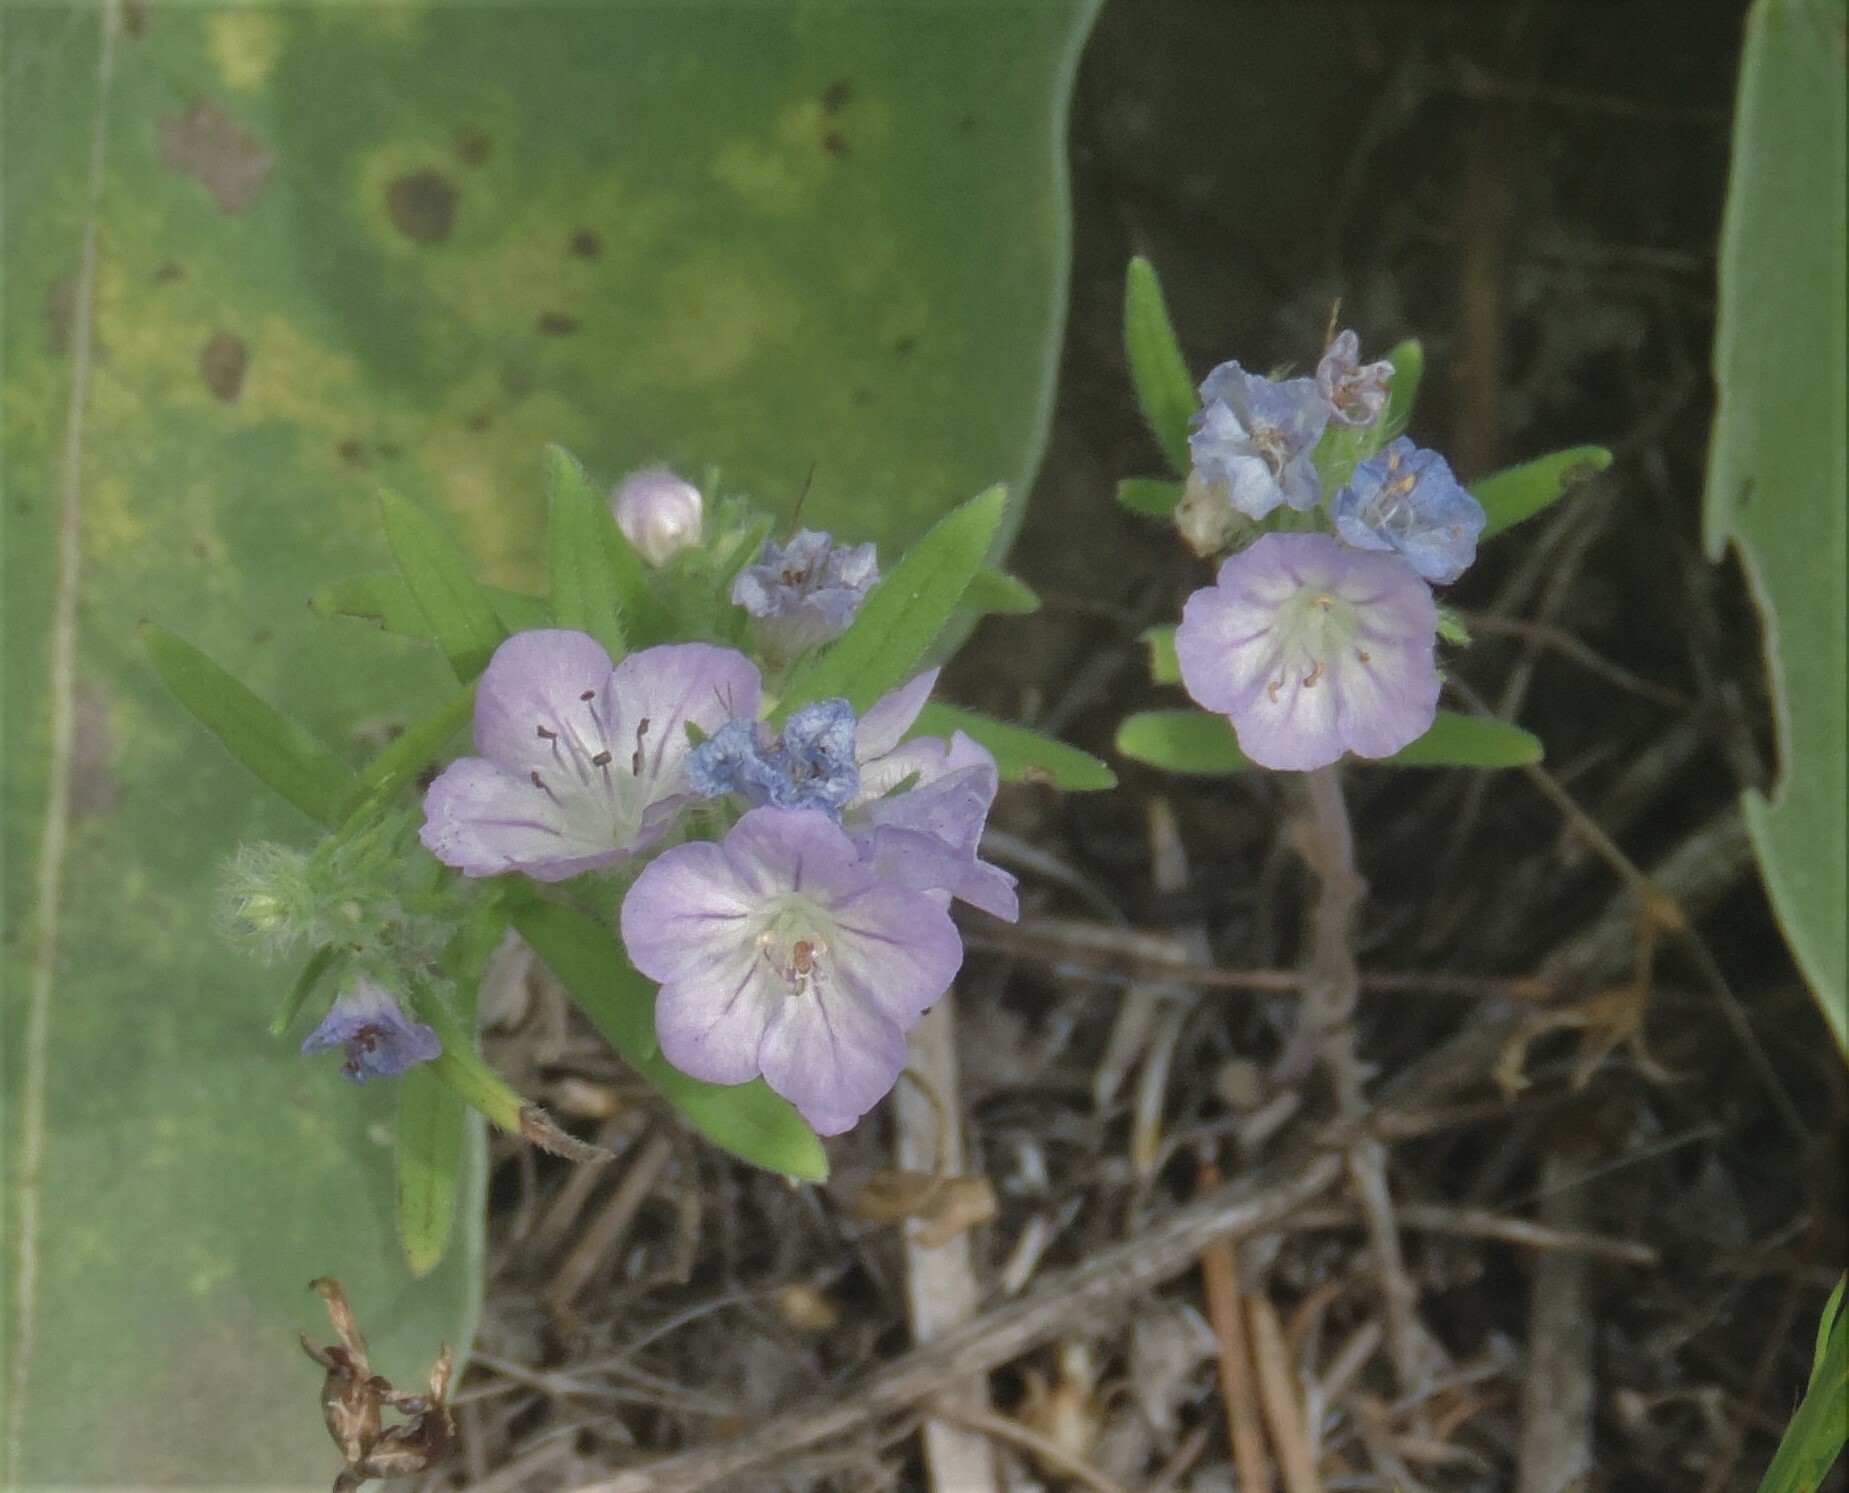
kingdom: Plantae
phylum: Tracheophyta
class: Magnoliopsida
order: Boraginales
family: Hydrophyllaceae
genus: Phacelia
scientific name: Phacelia linearis
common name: Linear-leaved phacelia
